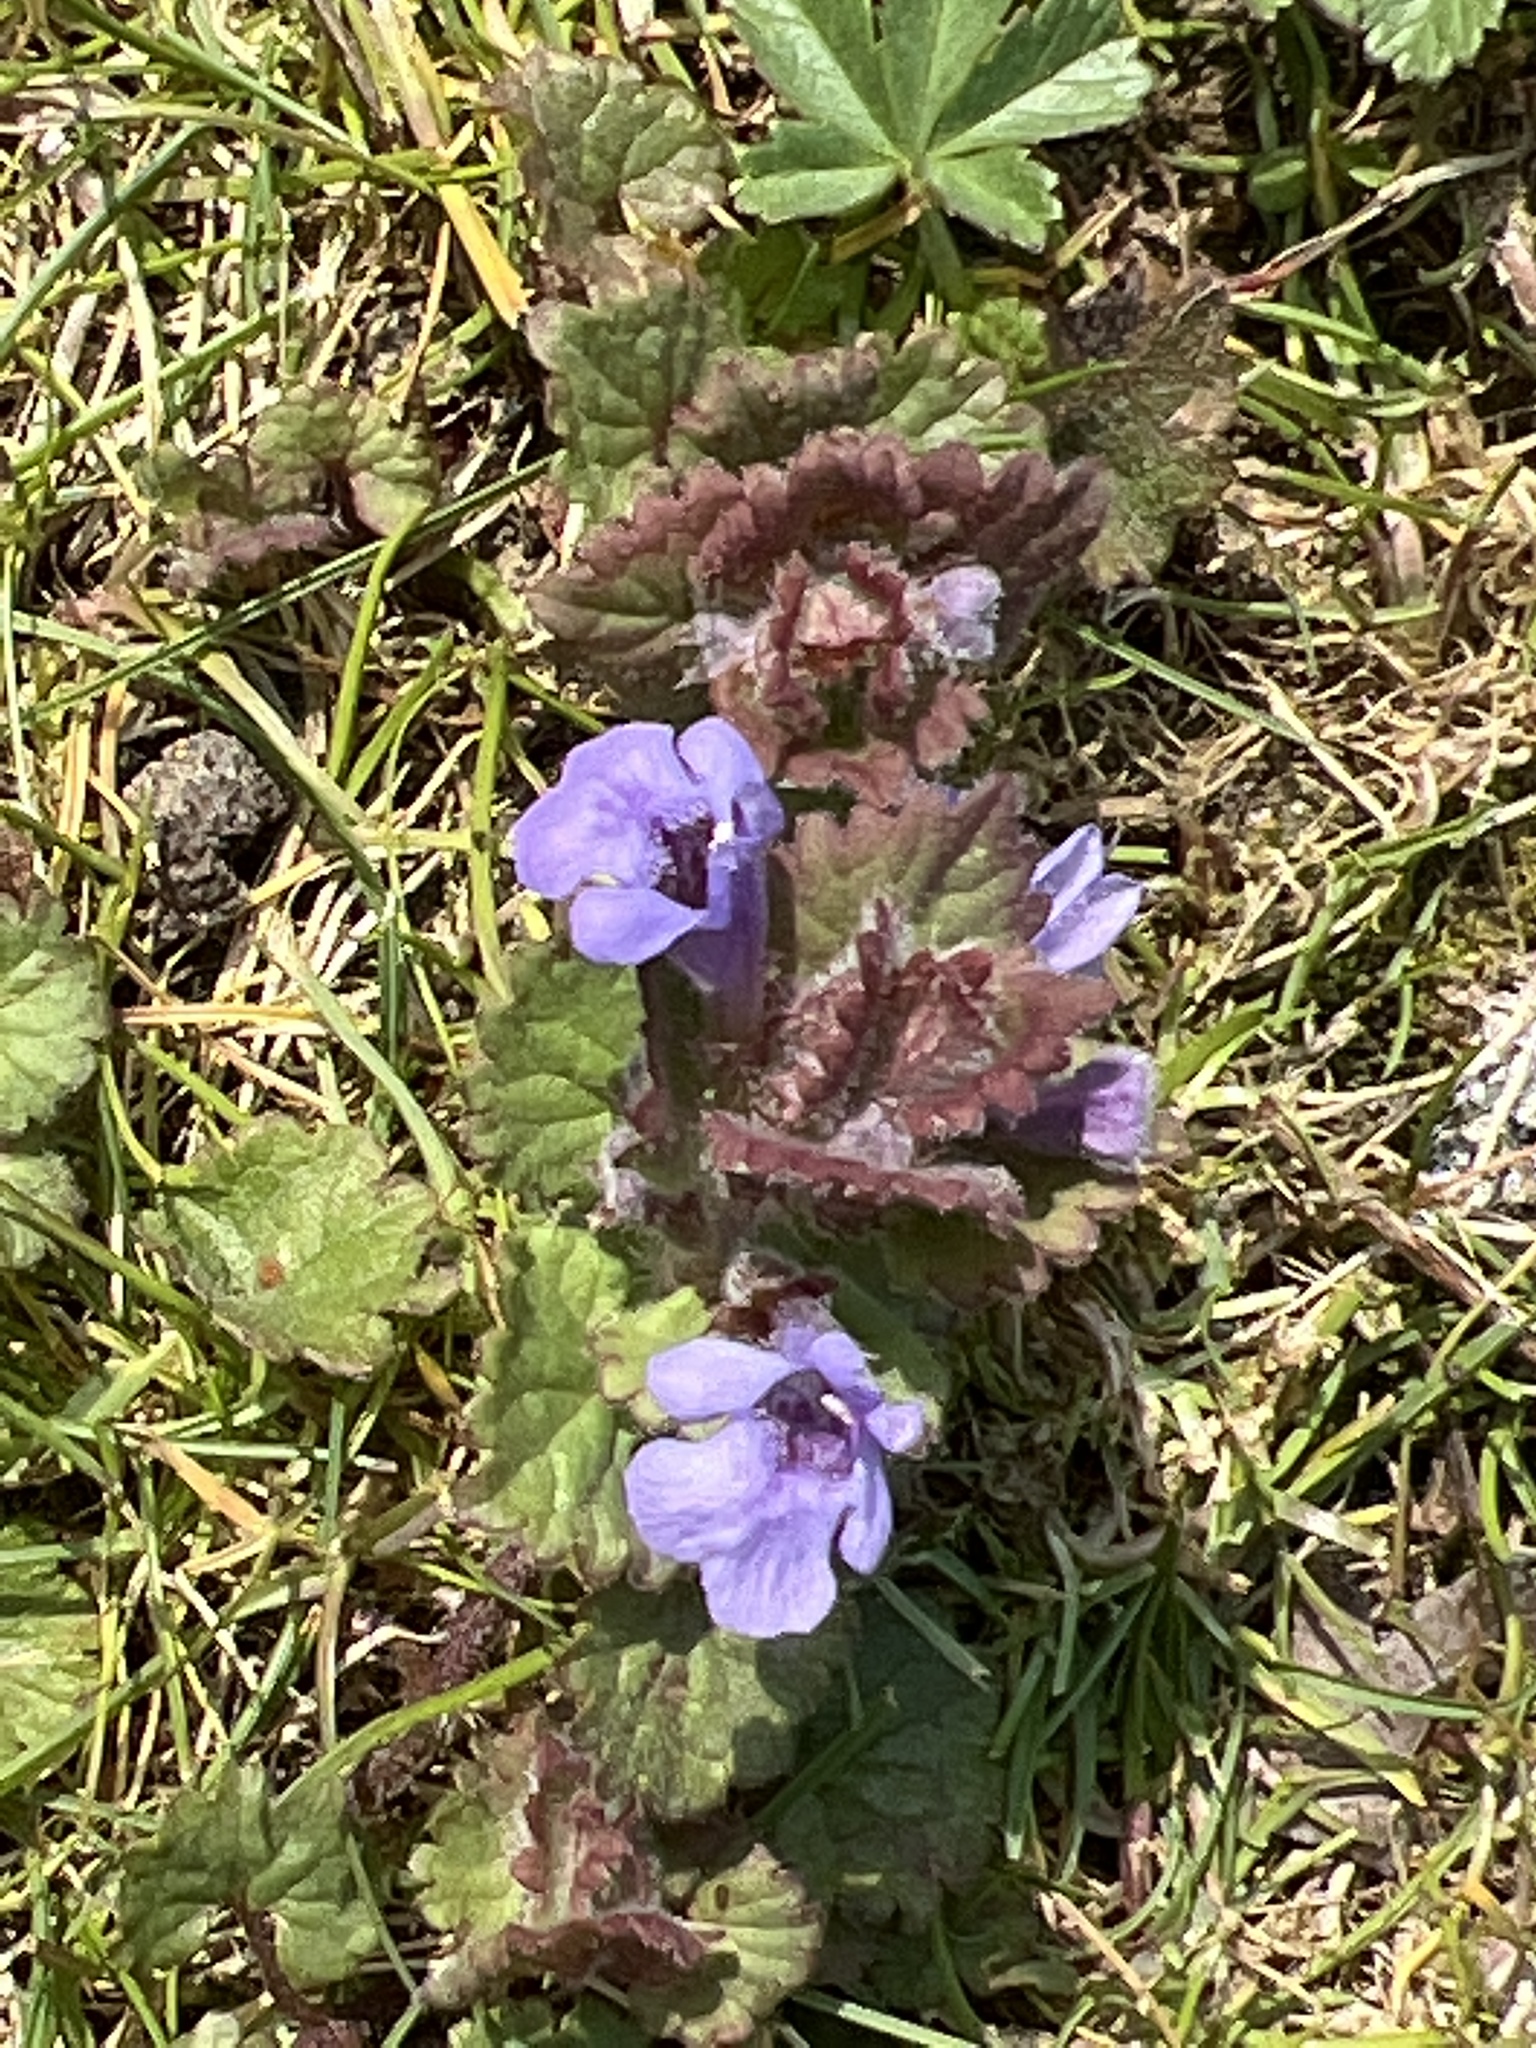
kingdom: Plantae
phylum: Tracheophyta
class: Magnoliopsida
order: Lamiales
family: Lamiaceae
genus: Glechoma
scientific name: Glechoma hederacea
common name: Ground ivy
